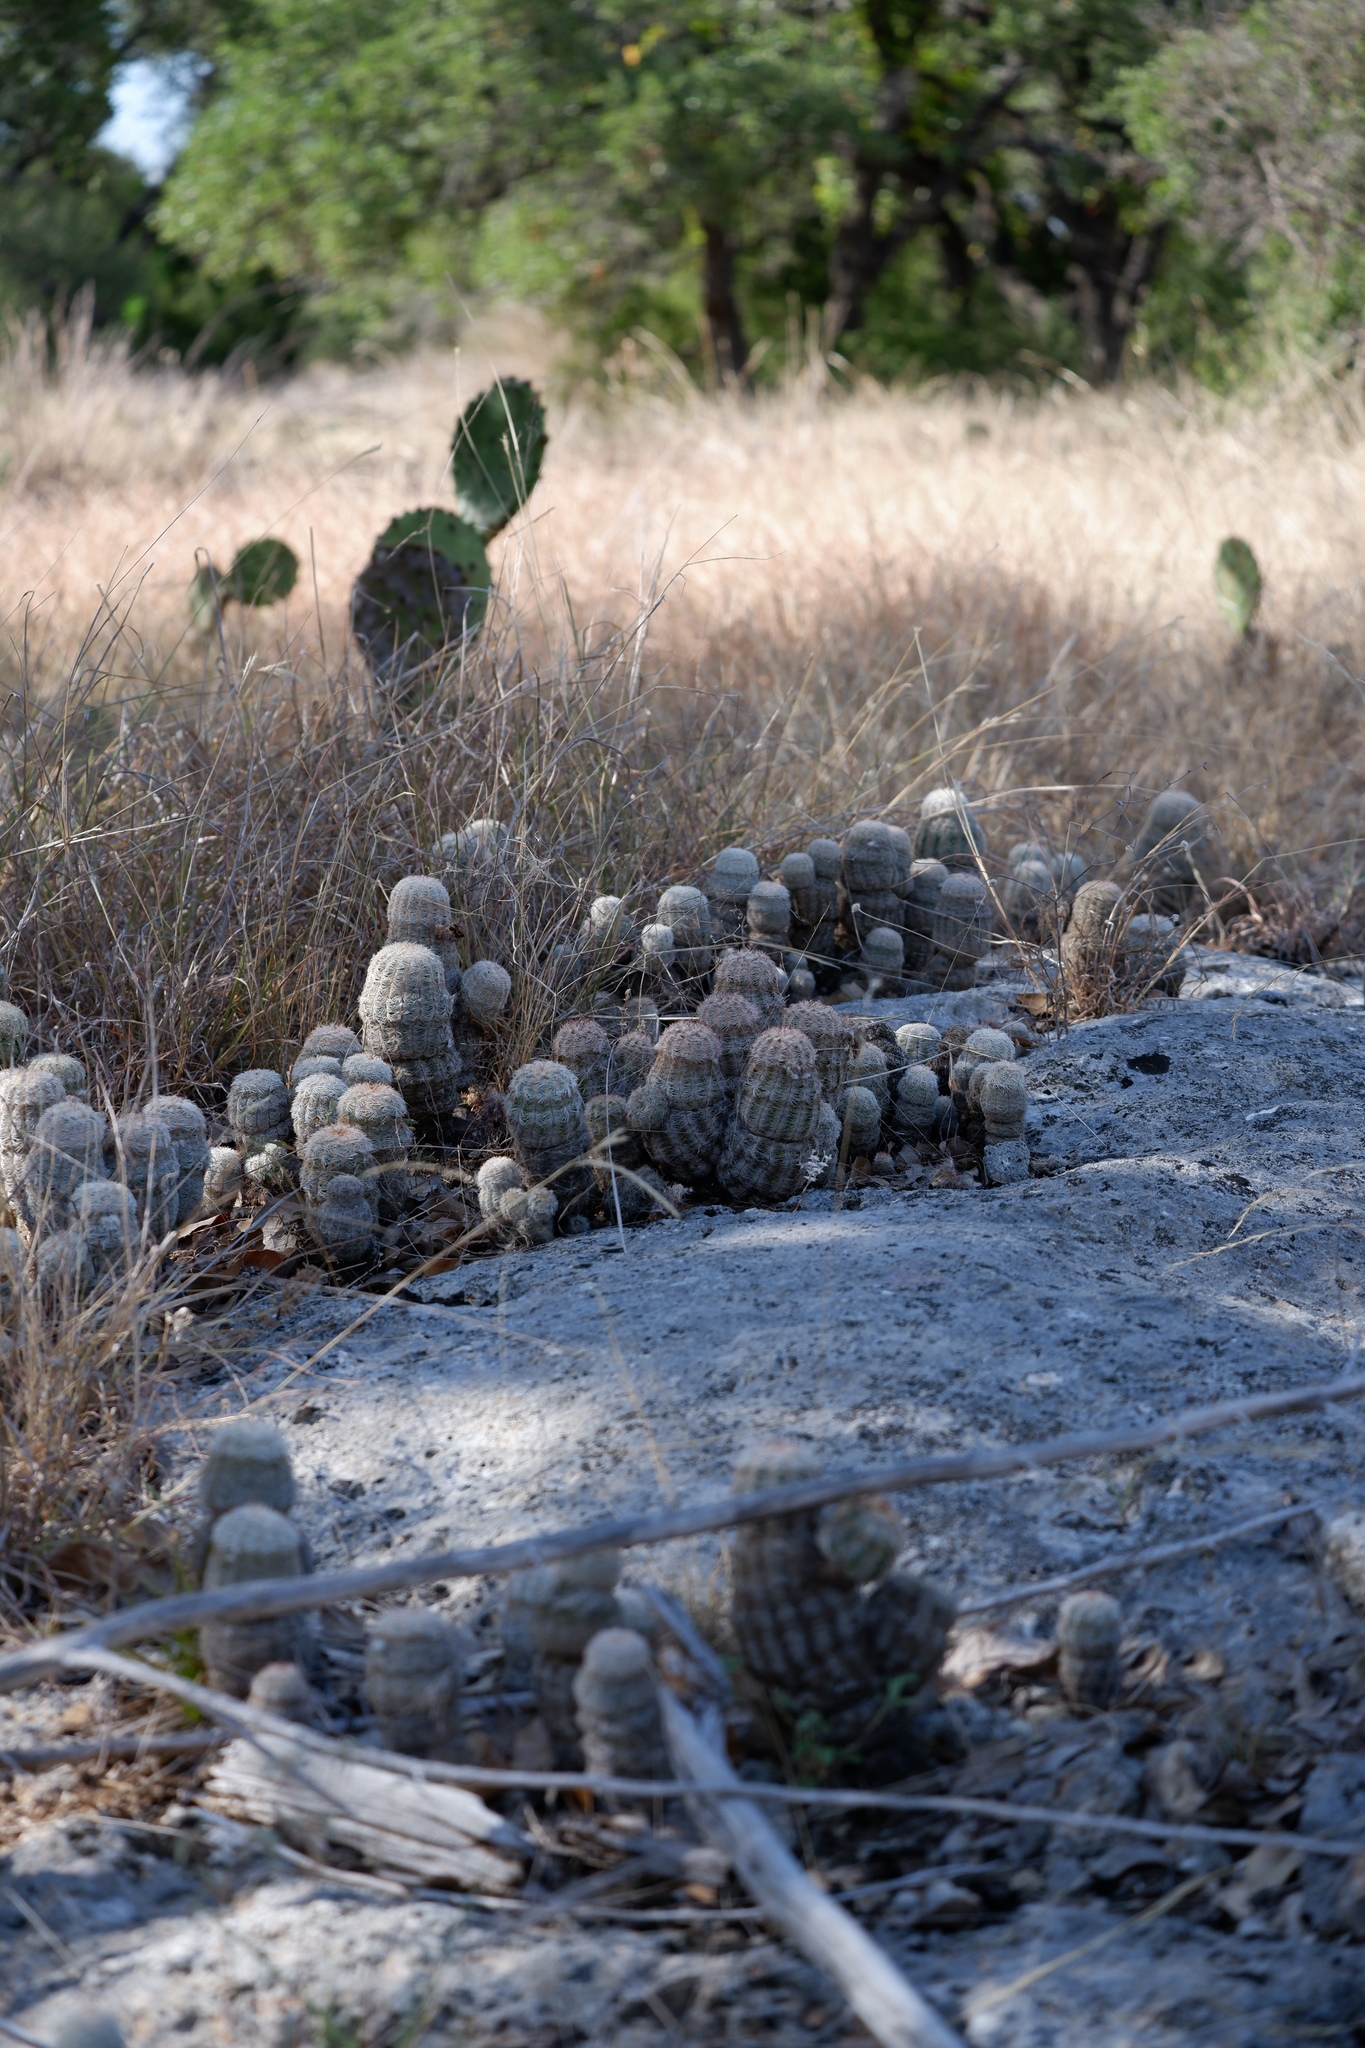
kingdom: Plantae
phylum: Tracheophyta
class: Magnoliopsida
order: Caryophyllales
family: Cactaceae
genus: Echinocereus
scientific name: Echinocereus reichenbachii
